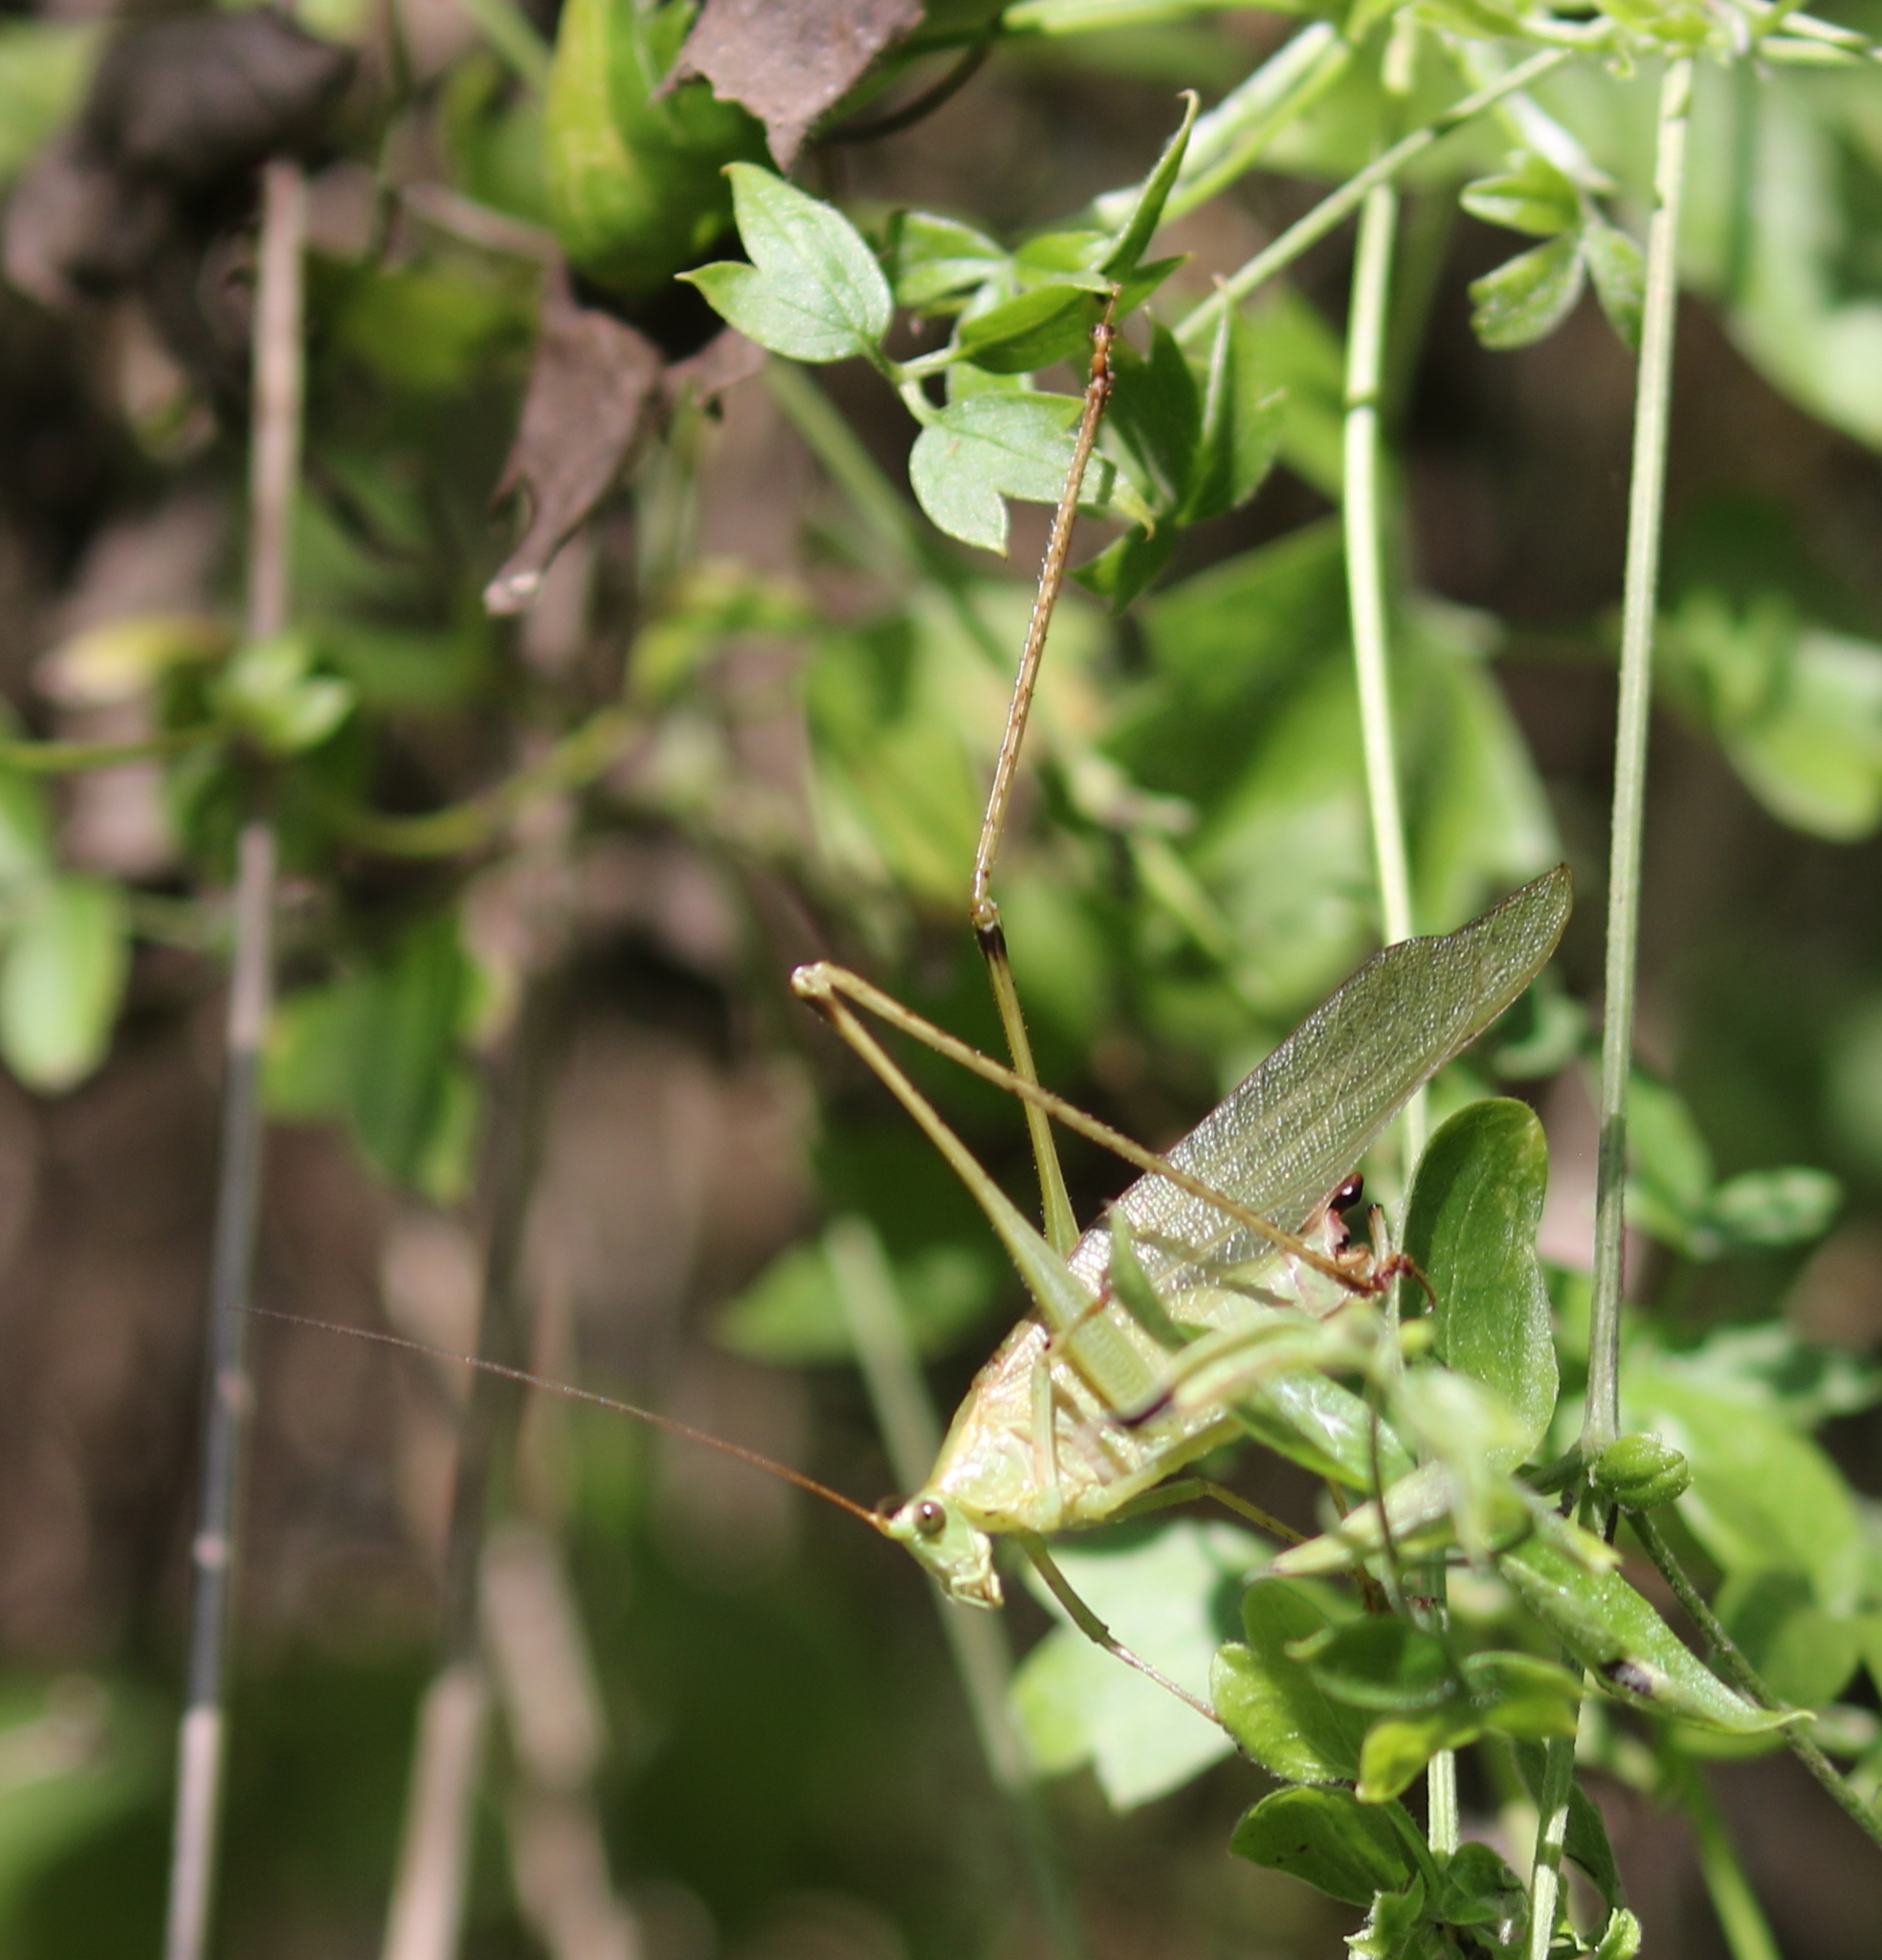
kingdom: Animalia
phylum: Arthropoda
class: Insecta
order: Orthoptera
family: Tettigoniidae
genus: Scudderia
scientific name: Scudderia furcata
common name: Fork-tailed bush katydid
